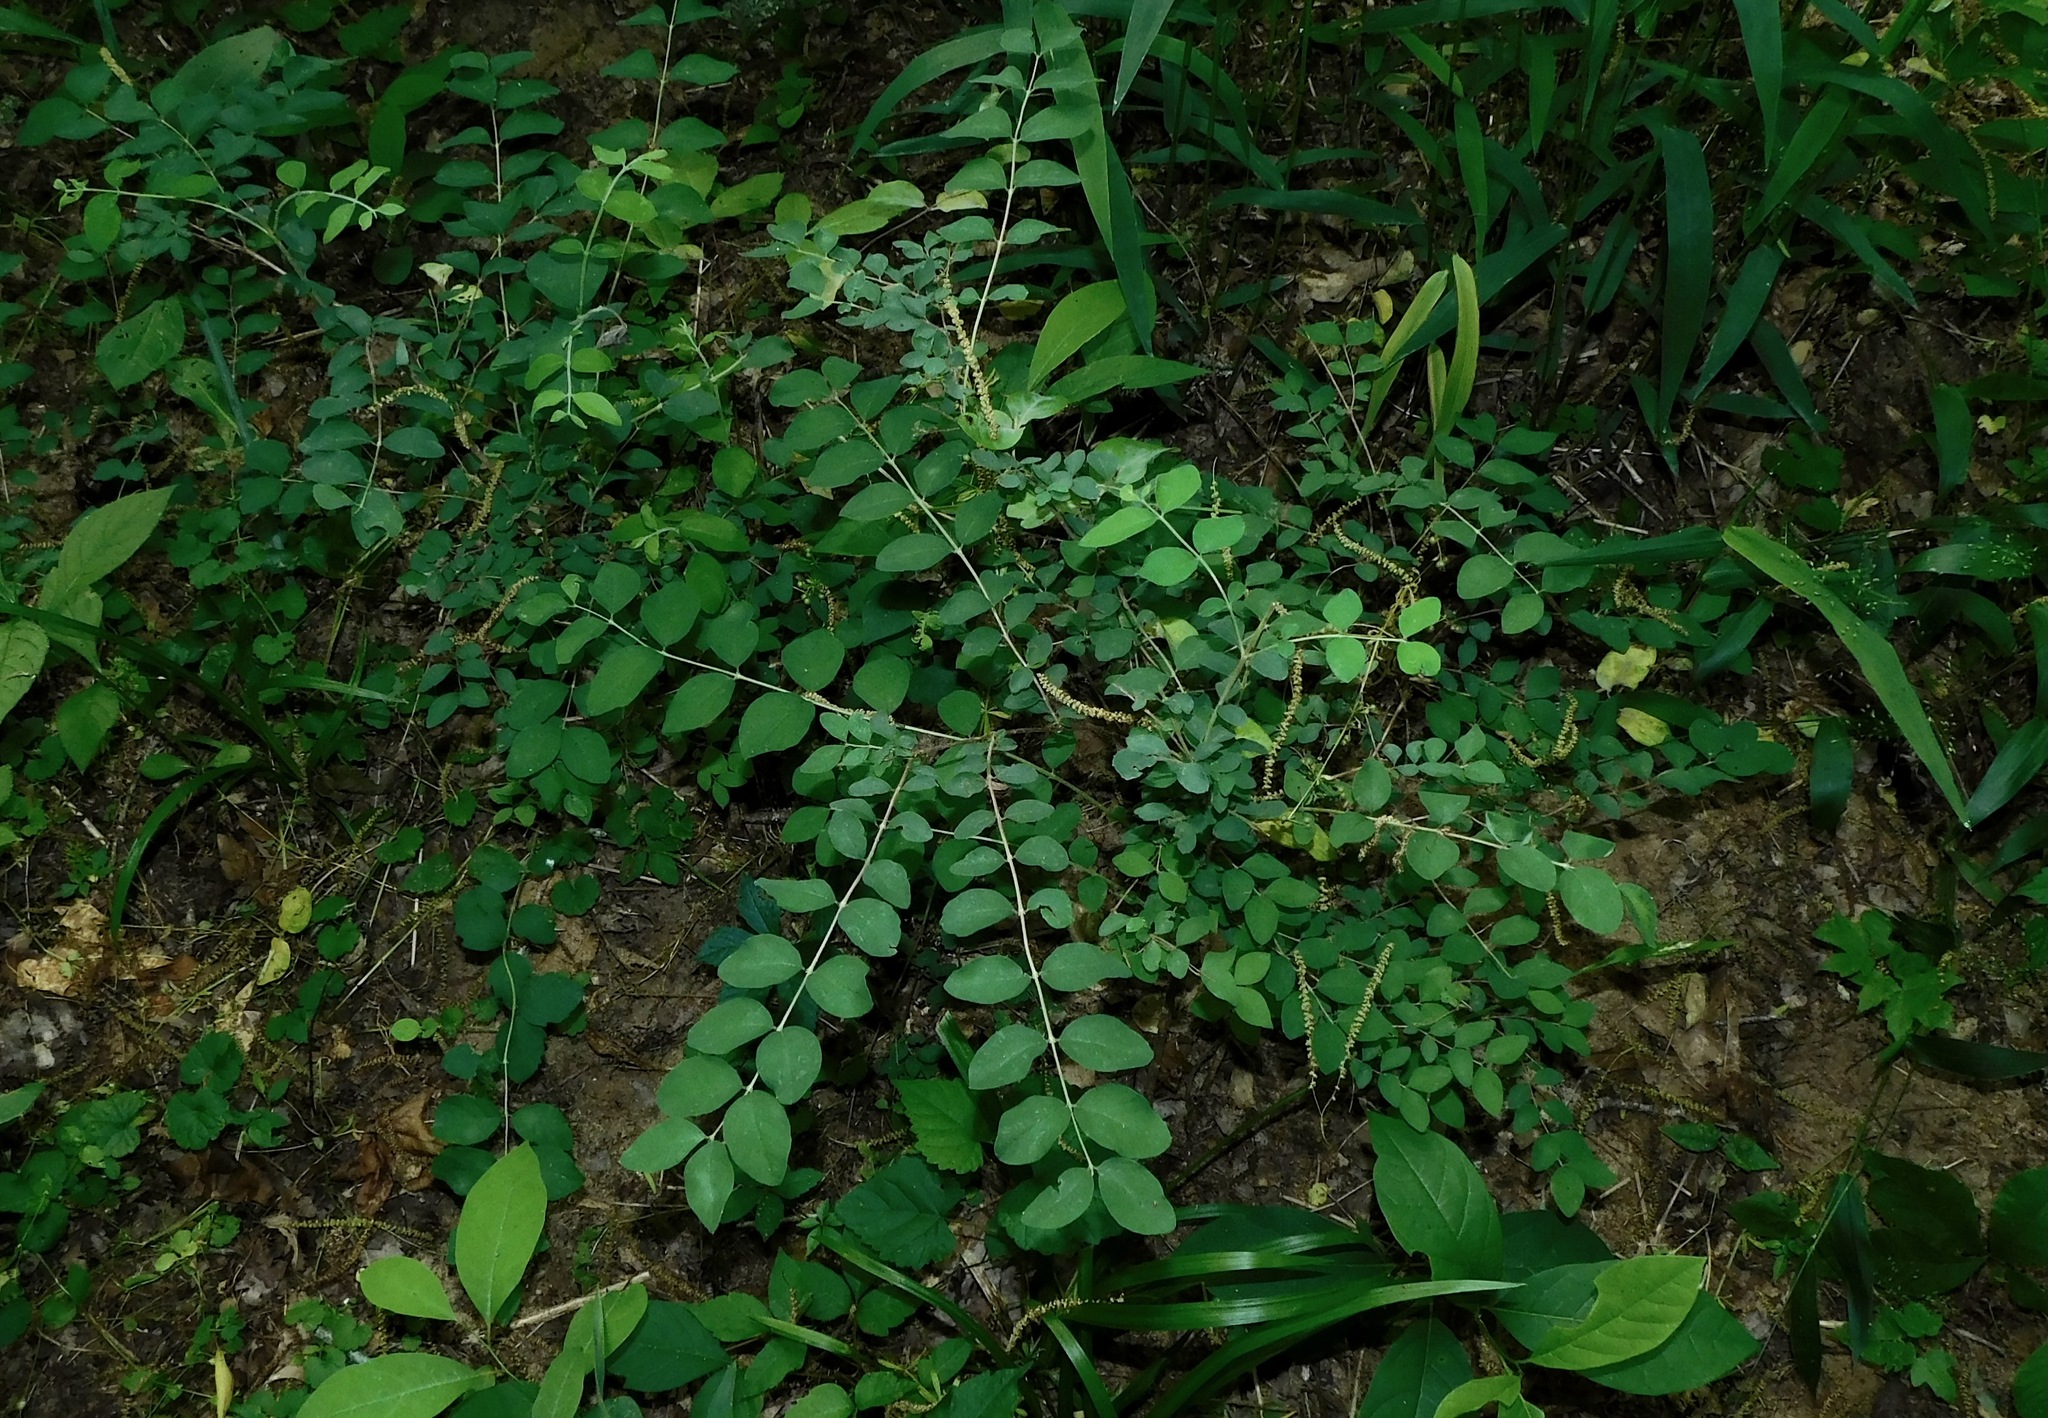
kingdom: Plantae
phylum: Tracheophyta
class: Magnoliopsida
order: Dipsacales
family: Caprifoliaceae
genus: Symphoricarpos
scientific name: Symphoricarpos orbiculatus
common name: Coralberry
